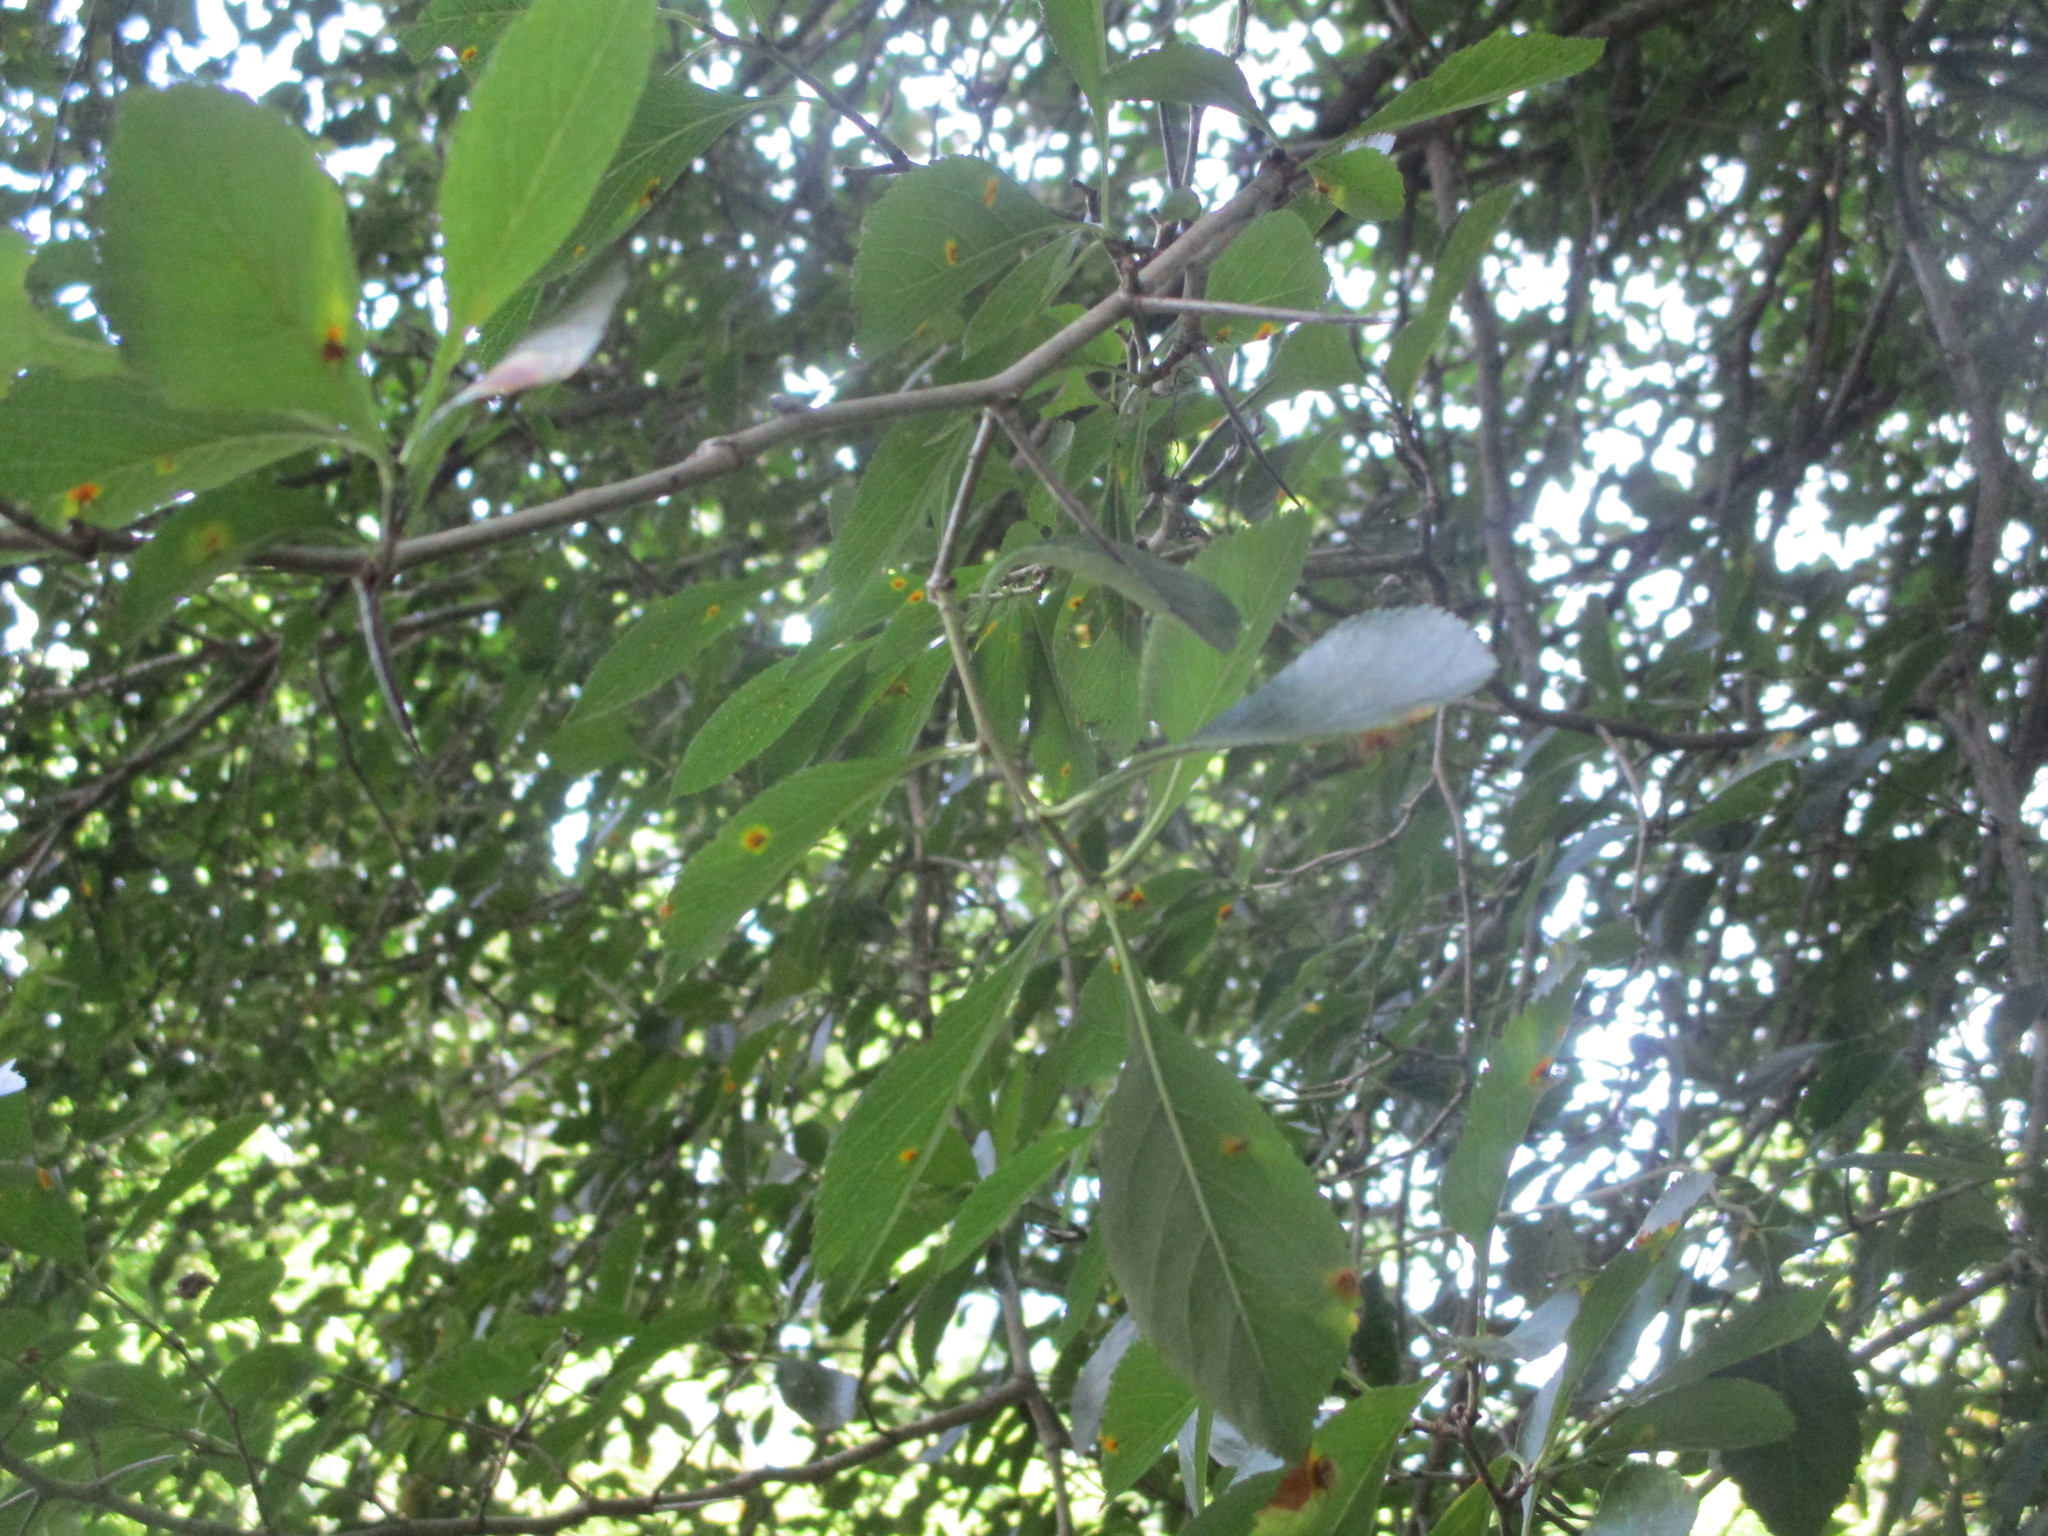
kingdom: Plantae
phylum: Tracheophyta
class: Magnoliopsida
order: Rosales
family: Rosaceae
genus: Crataegus
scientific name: Crataegus crus-galli
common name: Cockspurthorn
